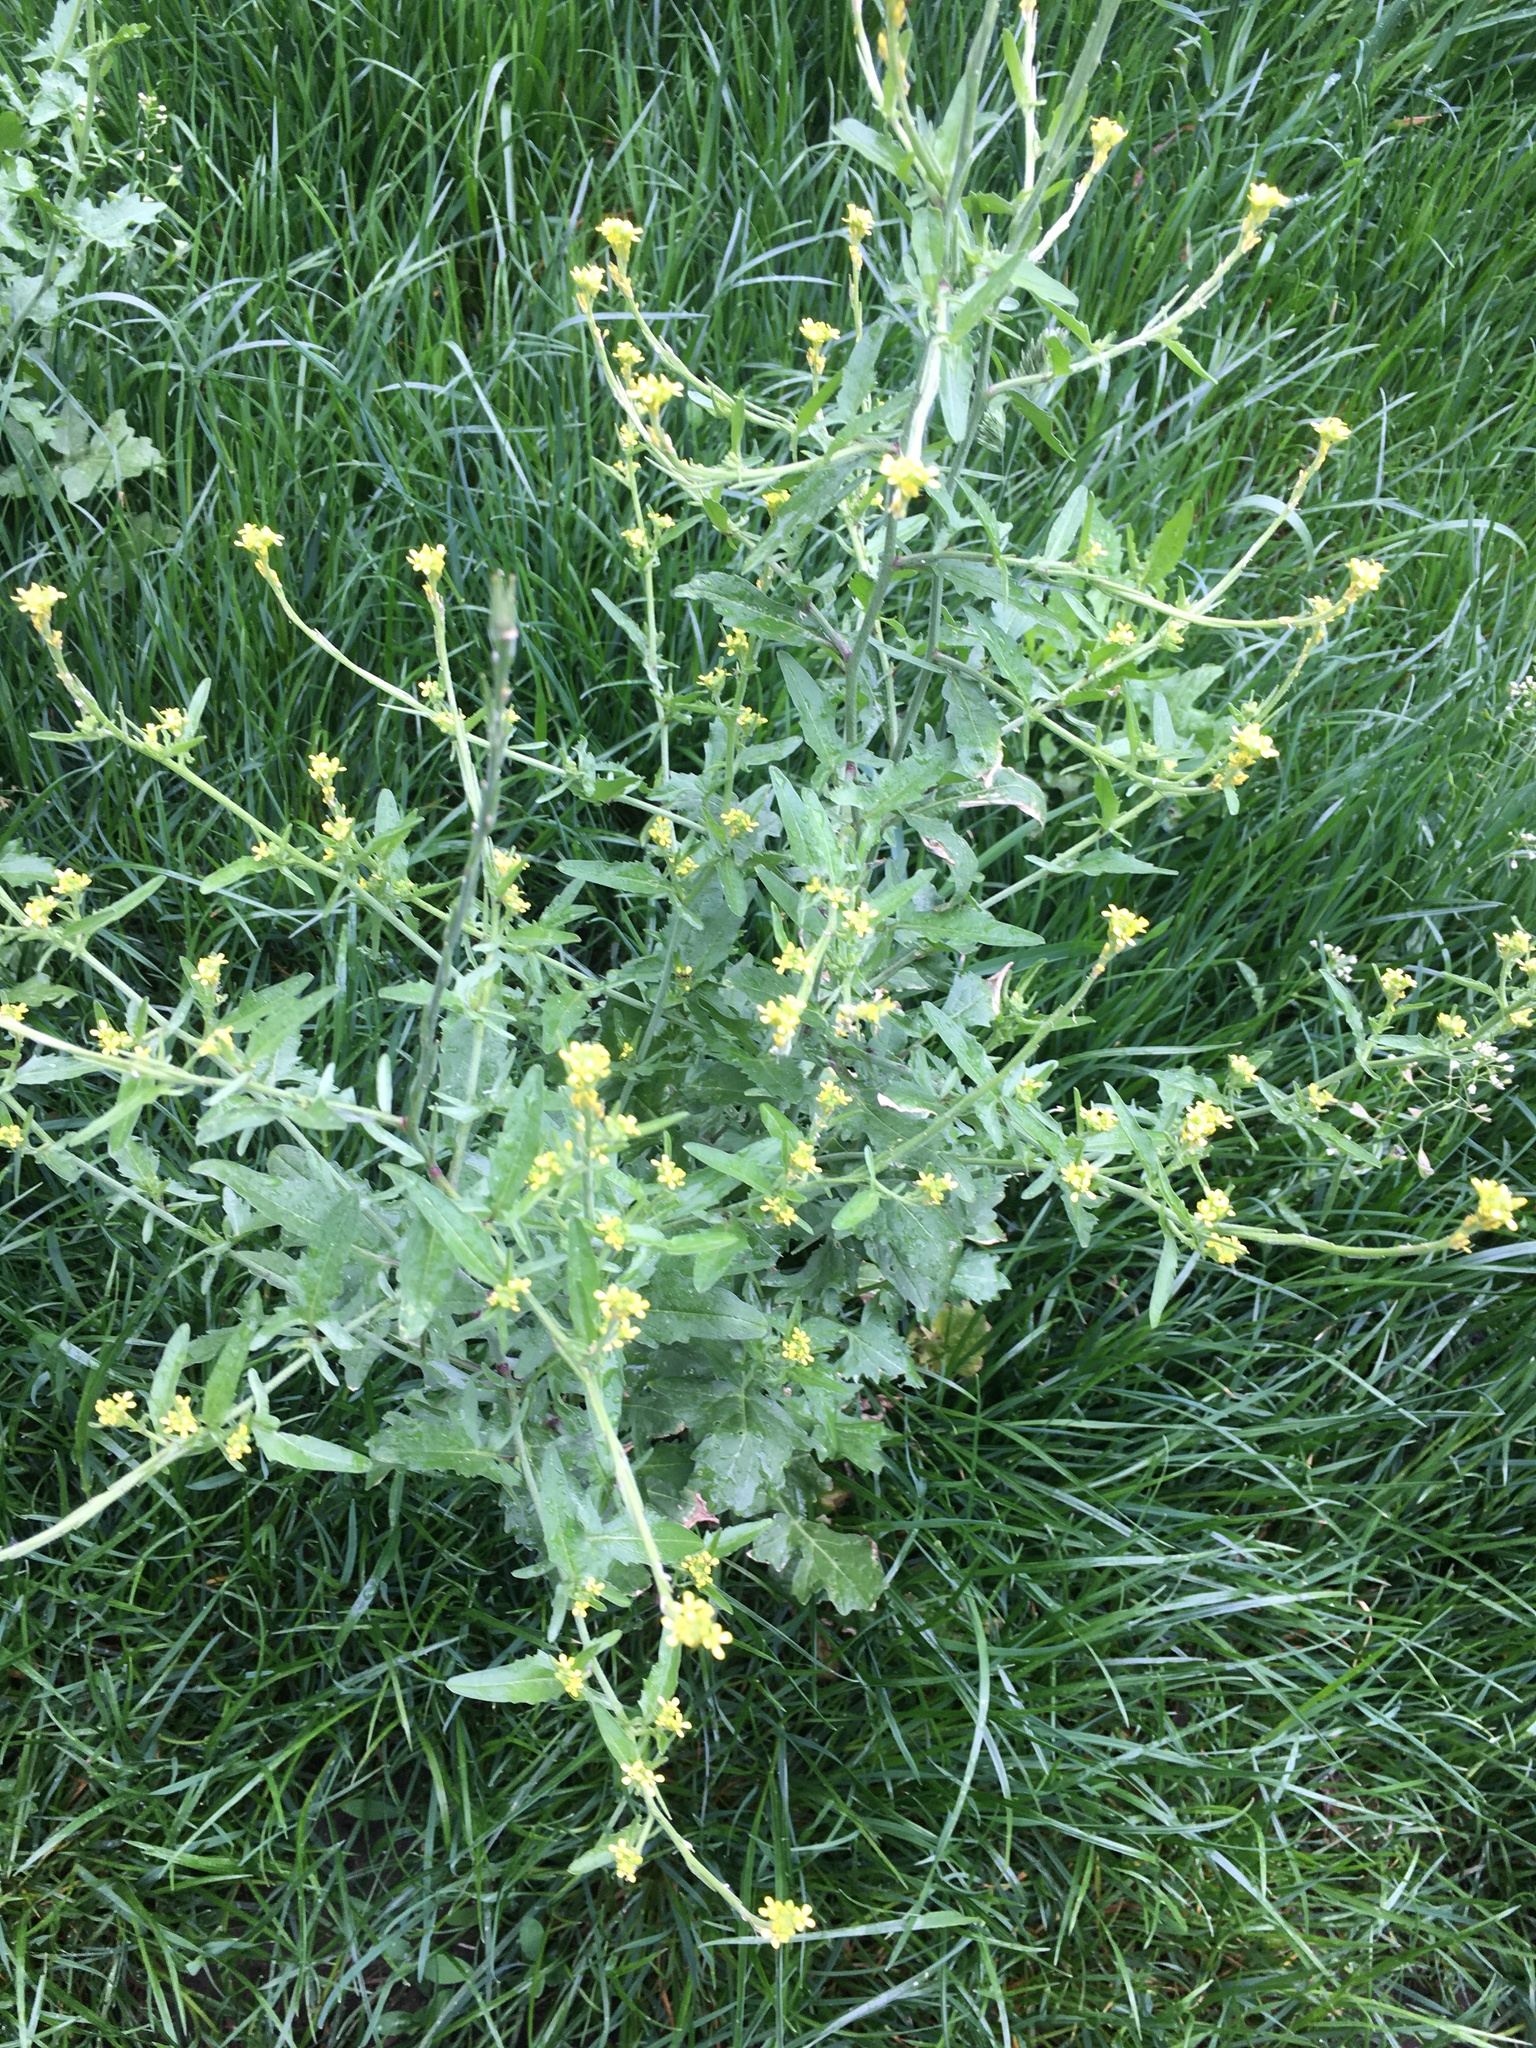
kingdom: Plantae
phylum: Tracheophyta
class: Magnoliopsida
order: Brassicales
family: Brassicaceae
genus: Sisymbrium
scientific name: Sisymbrium officinale
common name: Hedge mustard
